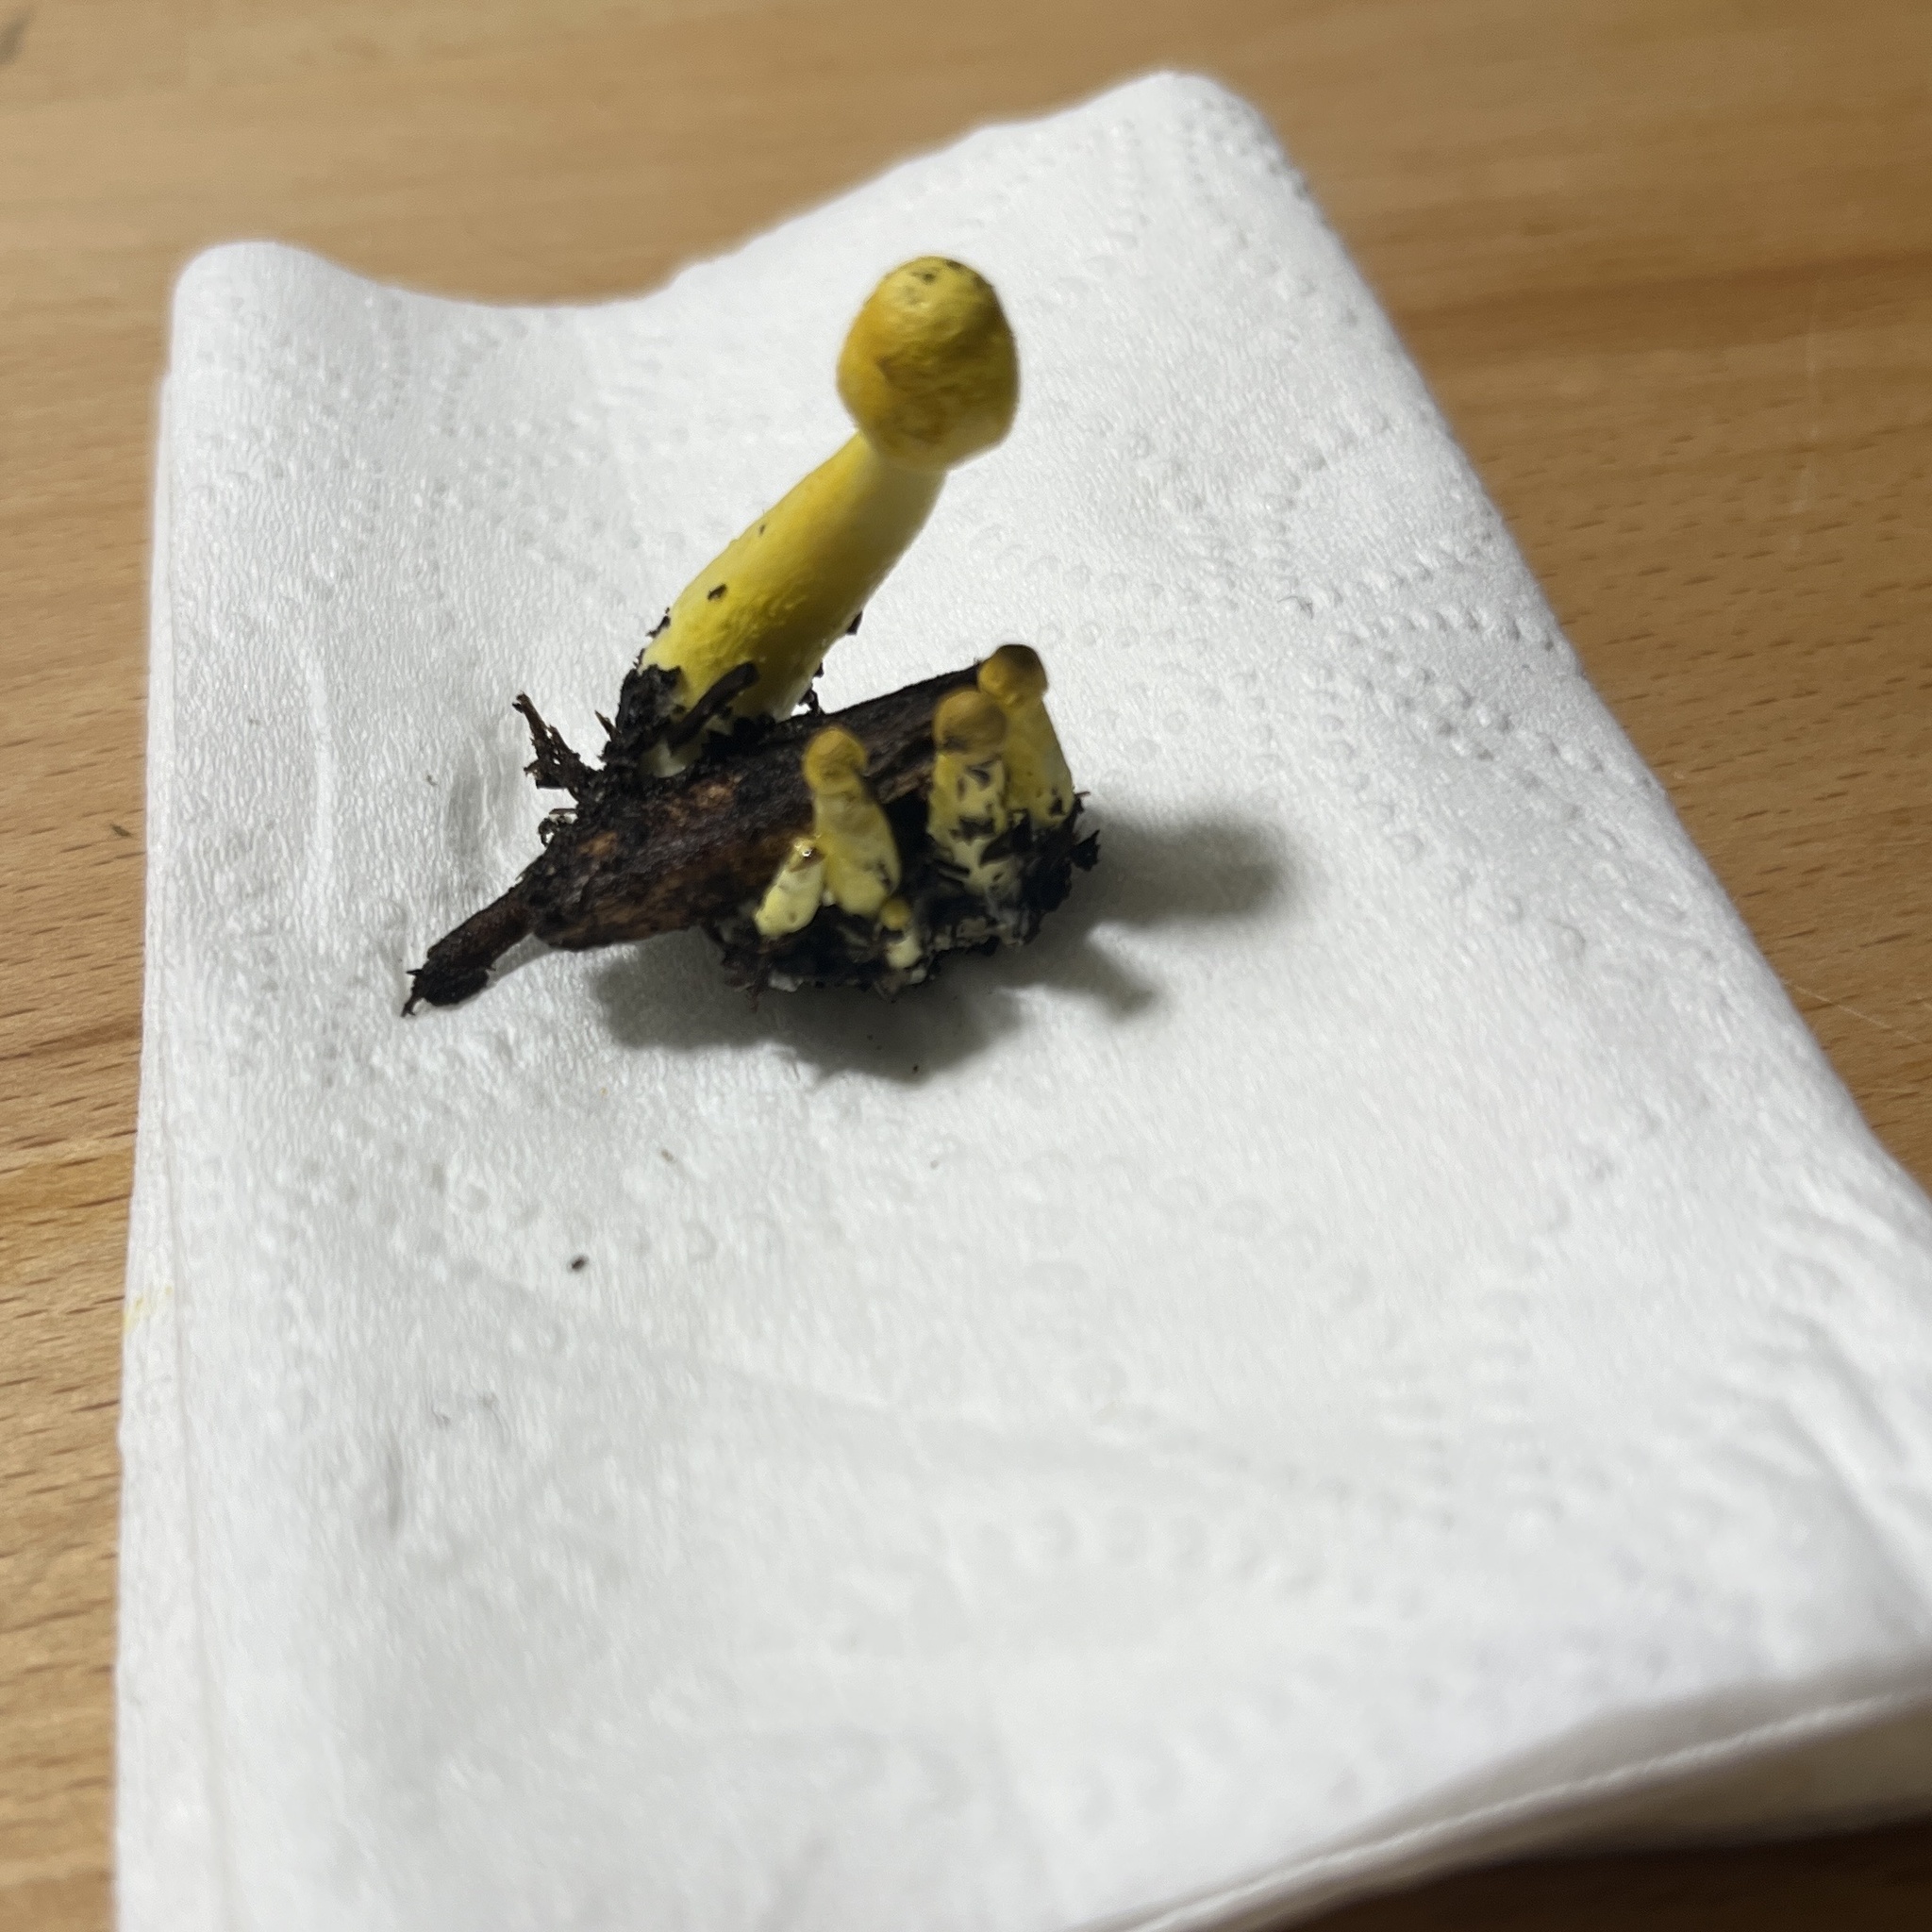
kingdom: Fungi
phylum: Basidiomycota
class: Agaricomycetes
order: Agaricales
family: Agaricaceae
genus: Leucocoprinus
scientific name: Leucocoprinus birnbaumii
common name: Plantpot dapperling
